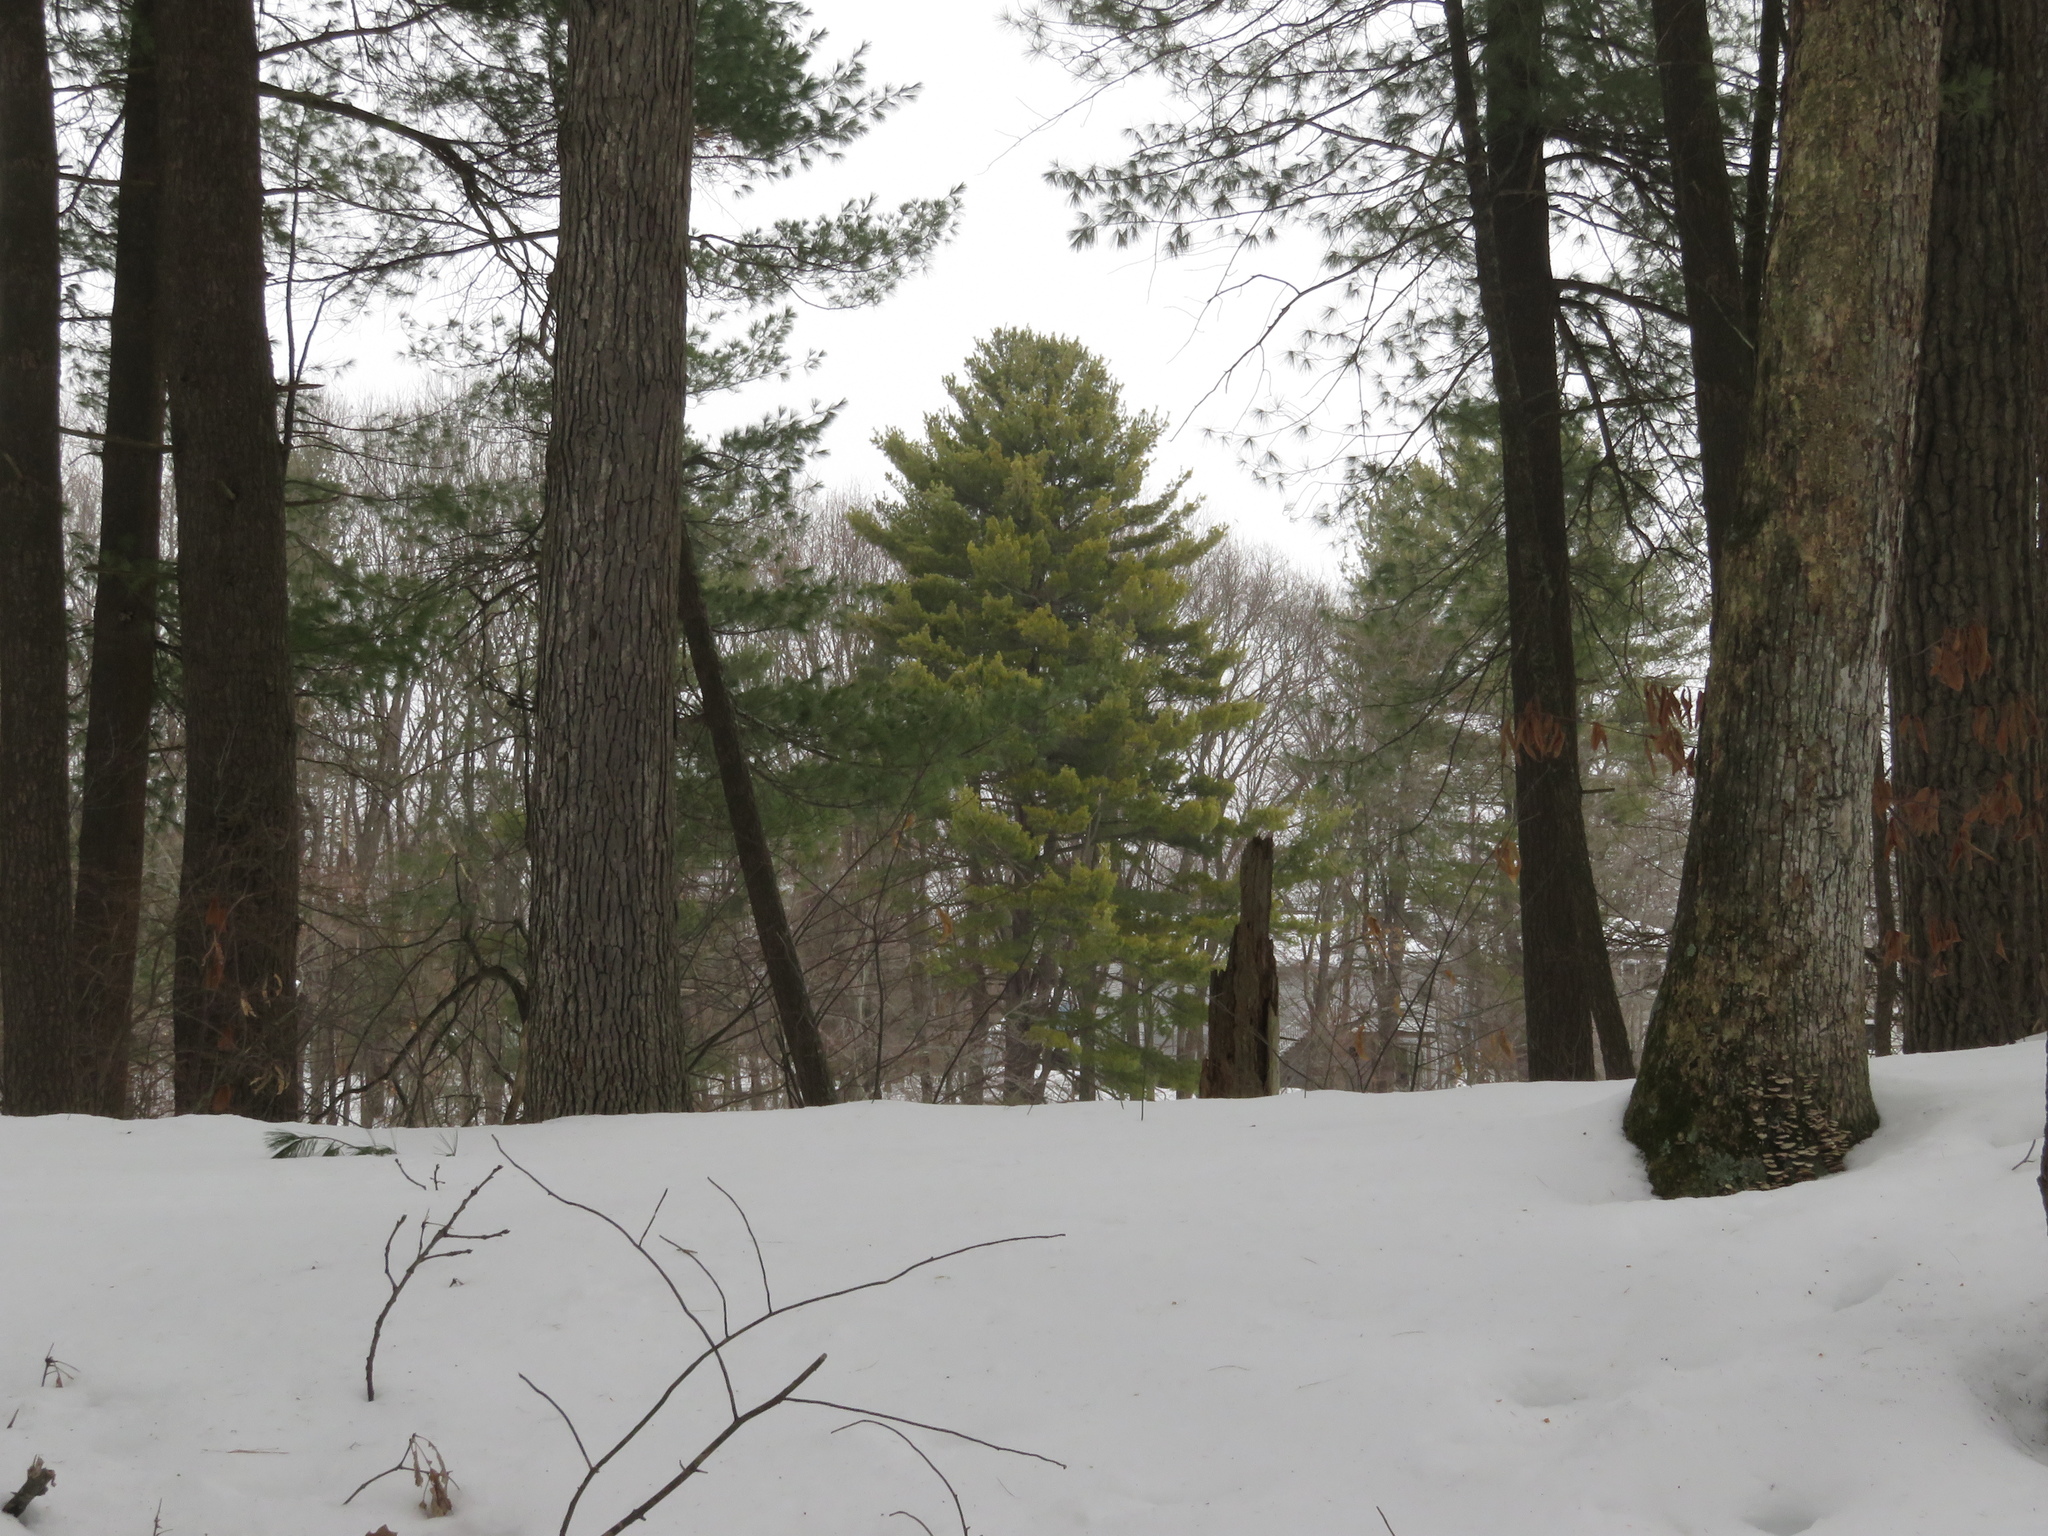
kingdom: Plantae
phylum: Tracheophyta
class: Pinopsida
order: Pinales
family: Pinaceae
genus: Pinus
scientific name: Pinus strobus
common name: Weymouth pine
